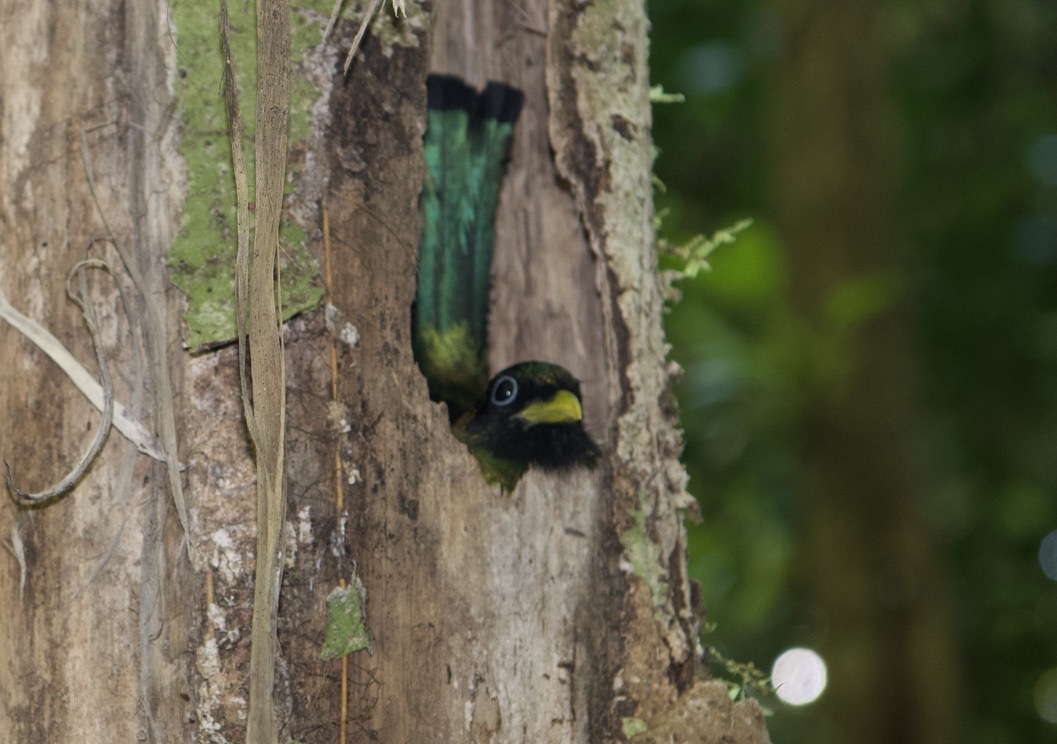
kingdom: Animalia
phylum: Chordata
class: Aves
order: Trogoniformes
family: Trogonidae
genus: Trogon
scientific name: Trogon melanocephalus
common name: Black-headed trogon
